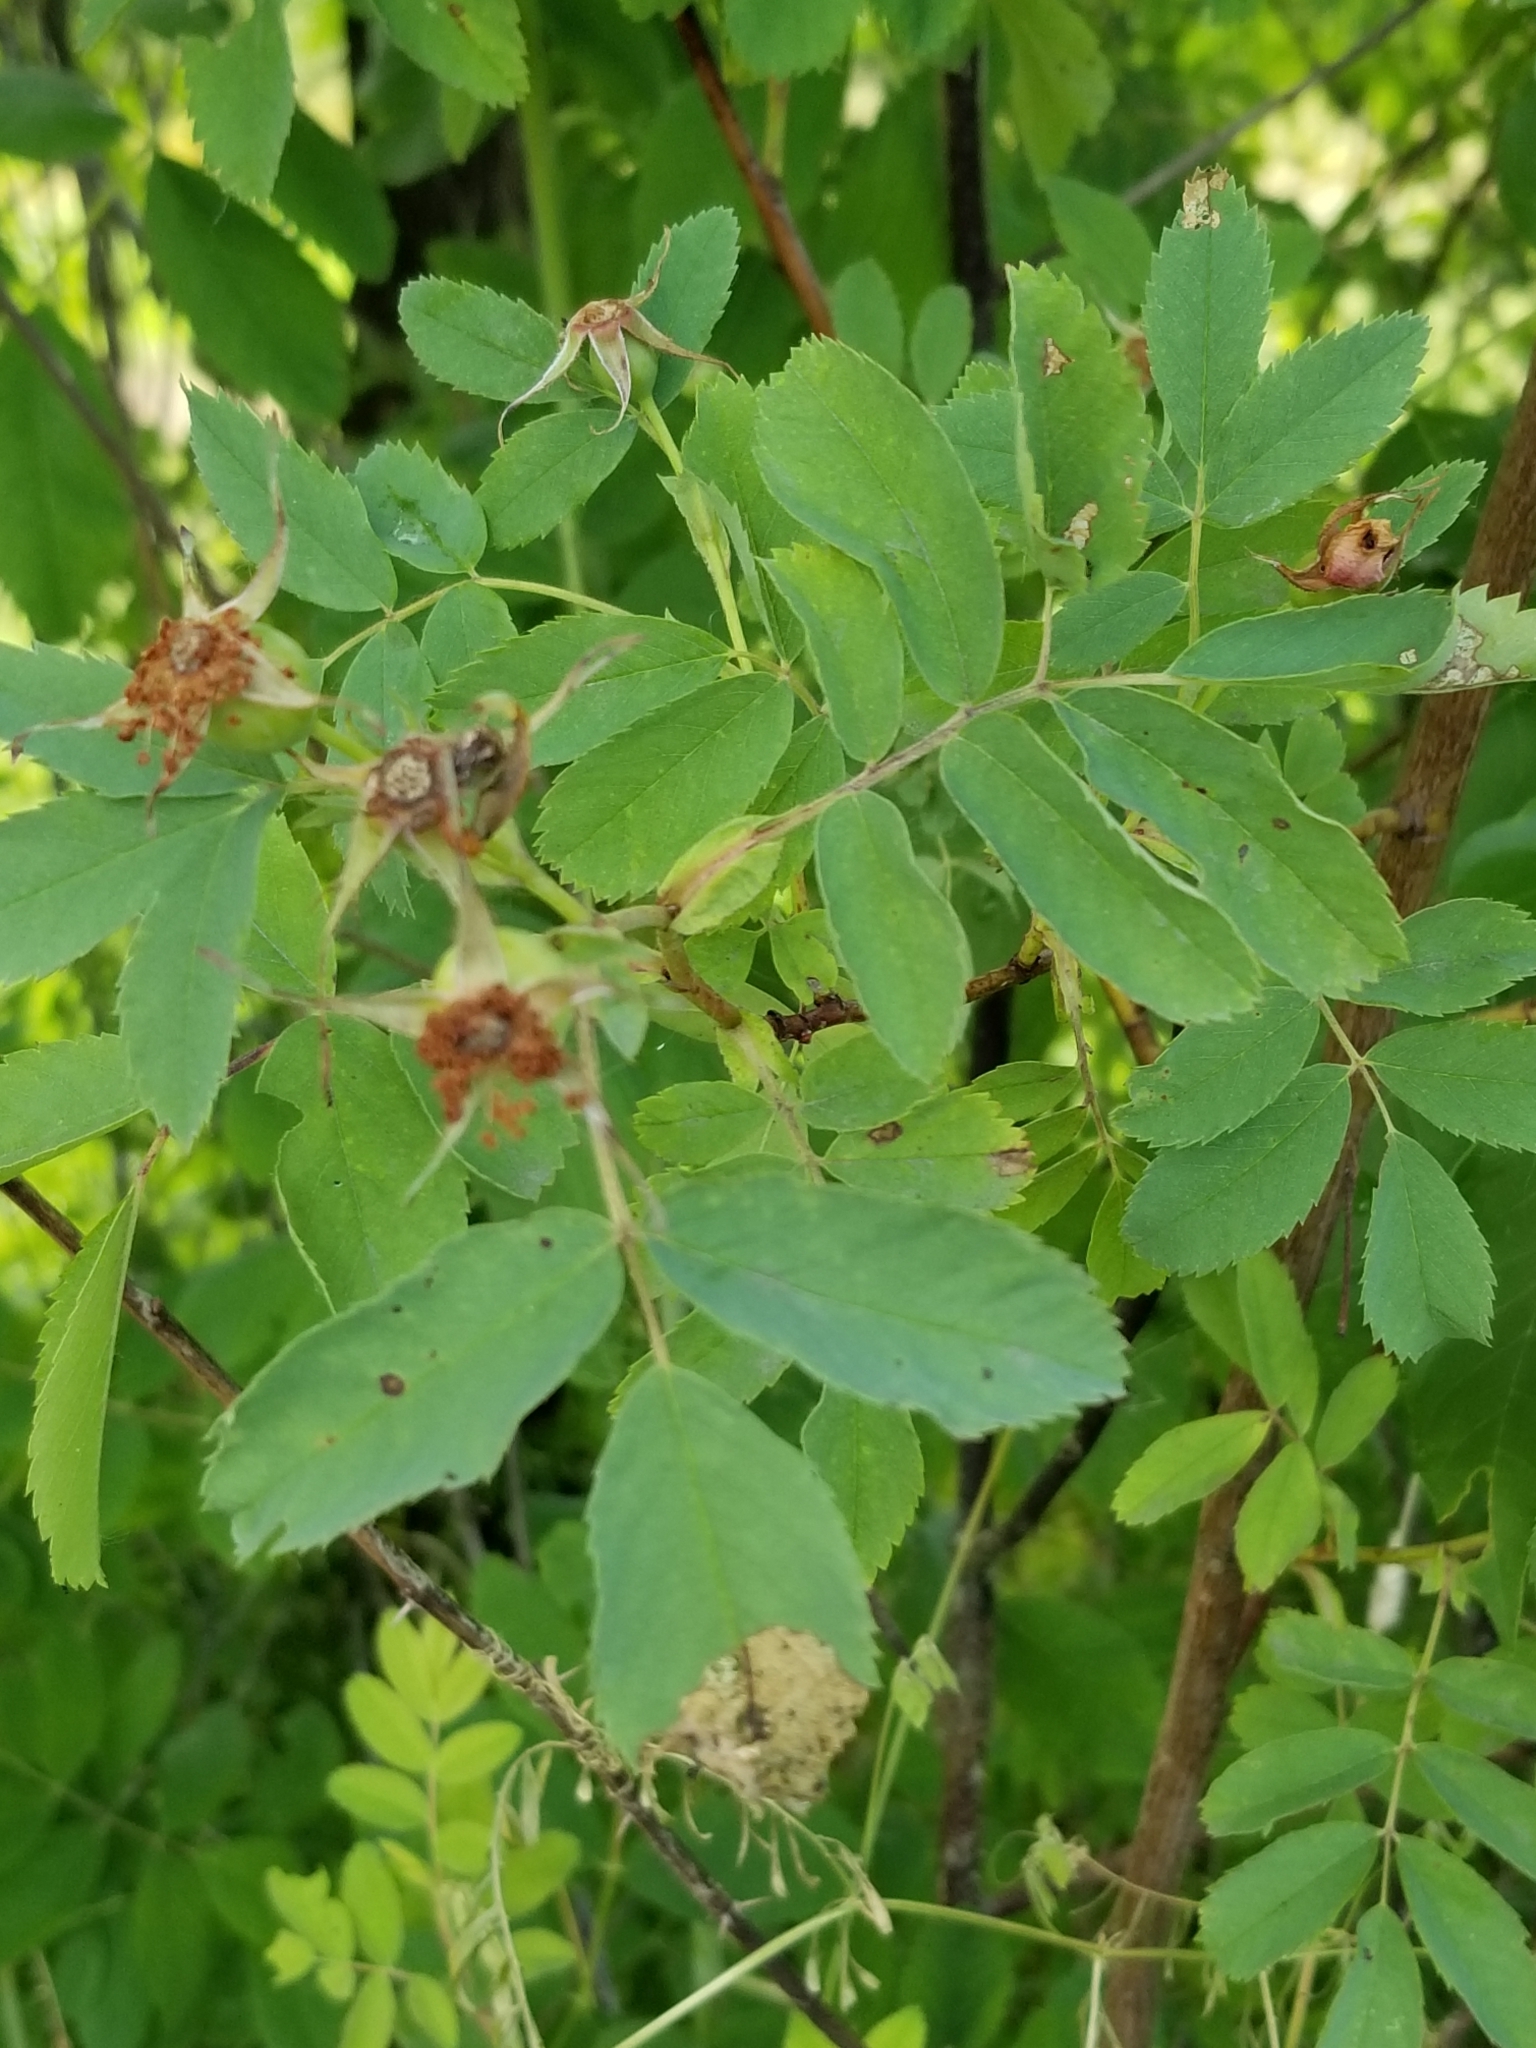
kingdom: Plantae
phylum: Tracheophyta
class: Magnoliopsida
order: Rosales
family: Rosaceae
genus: Rosa
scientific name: Rosa nutkana
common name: Nootka rose
